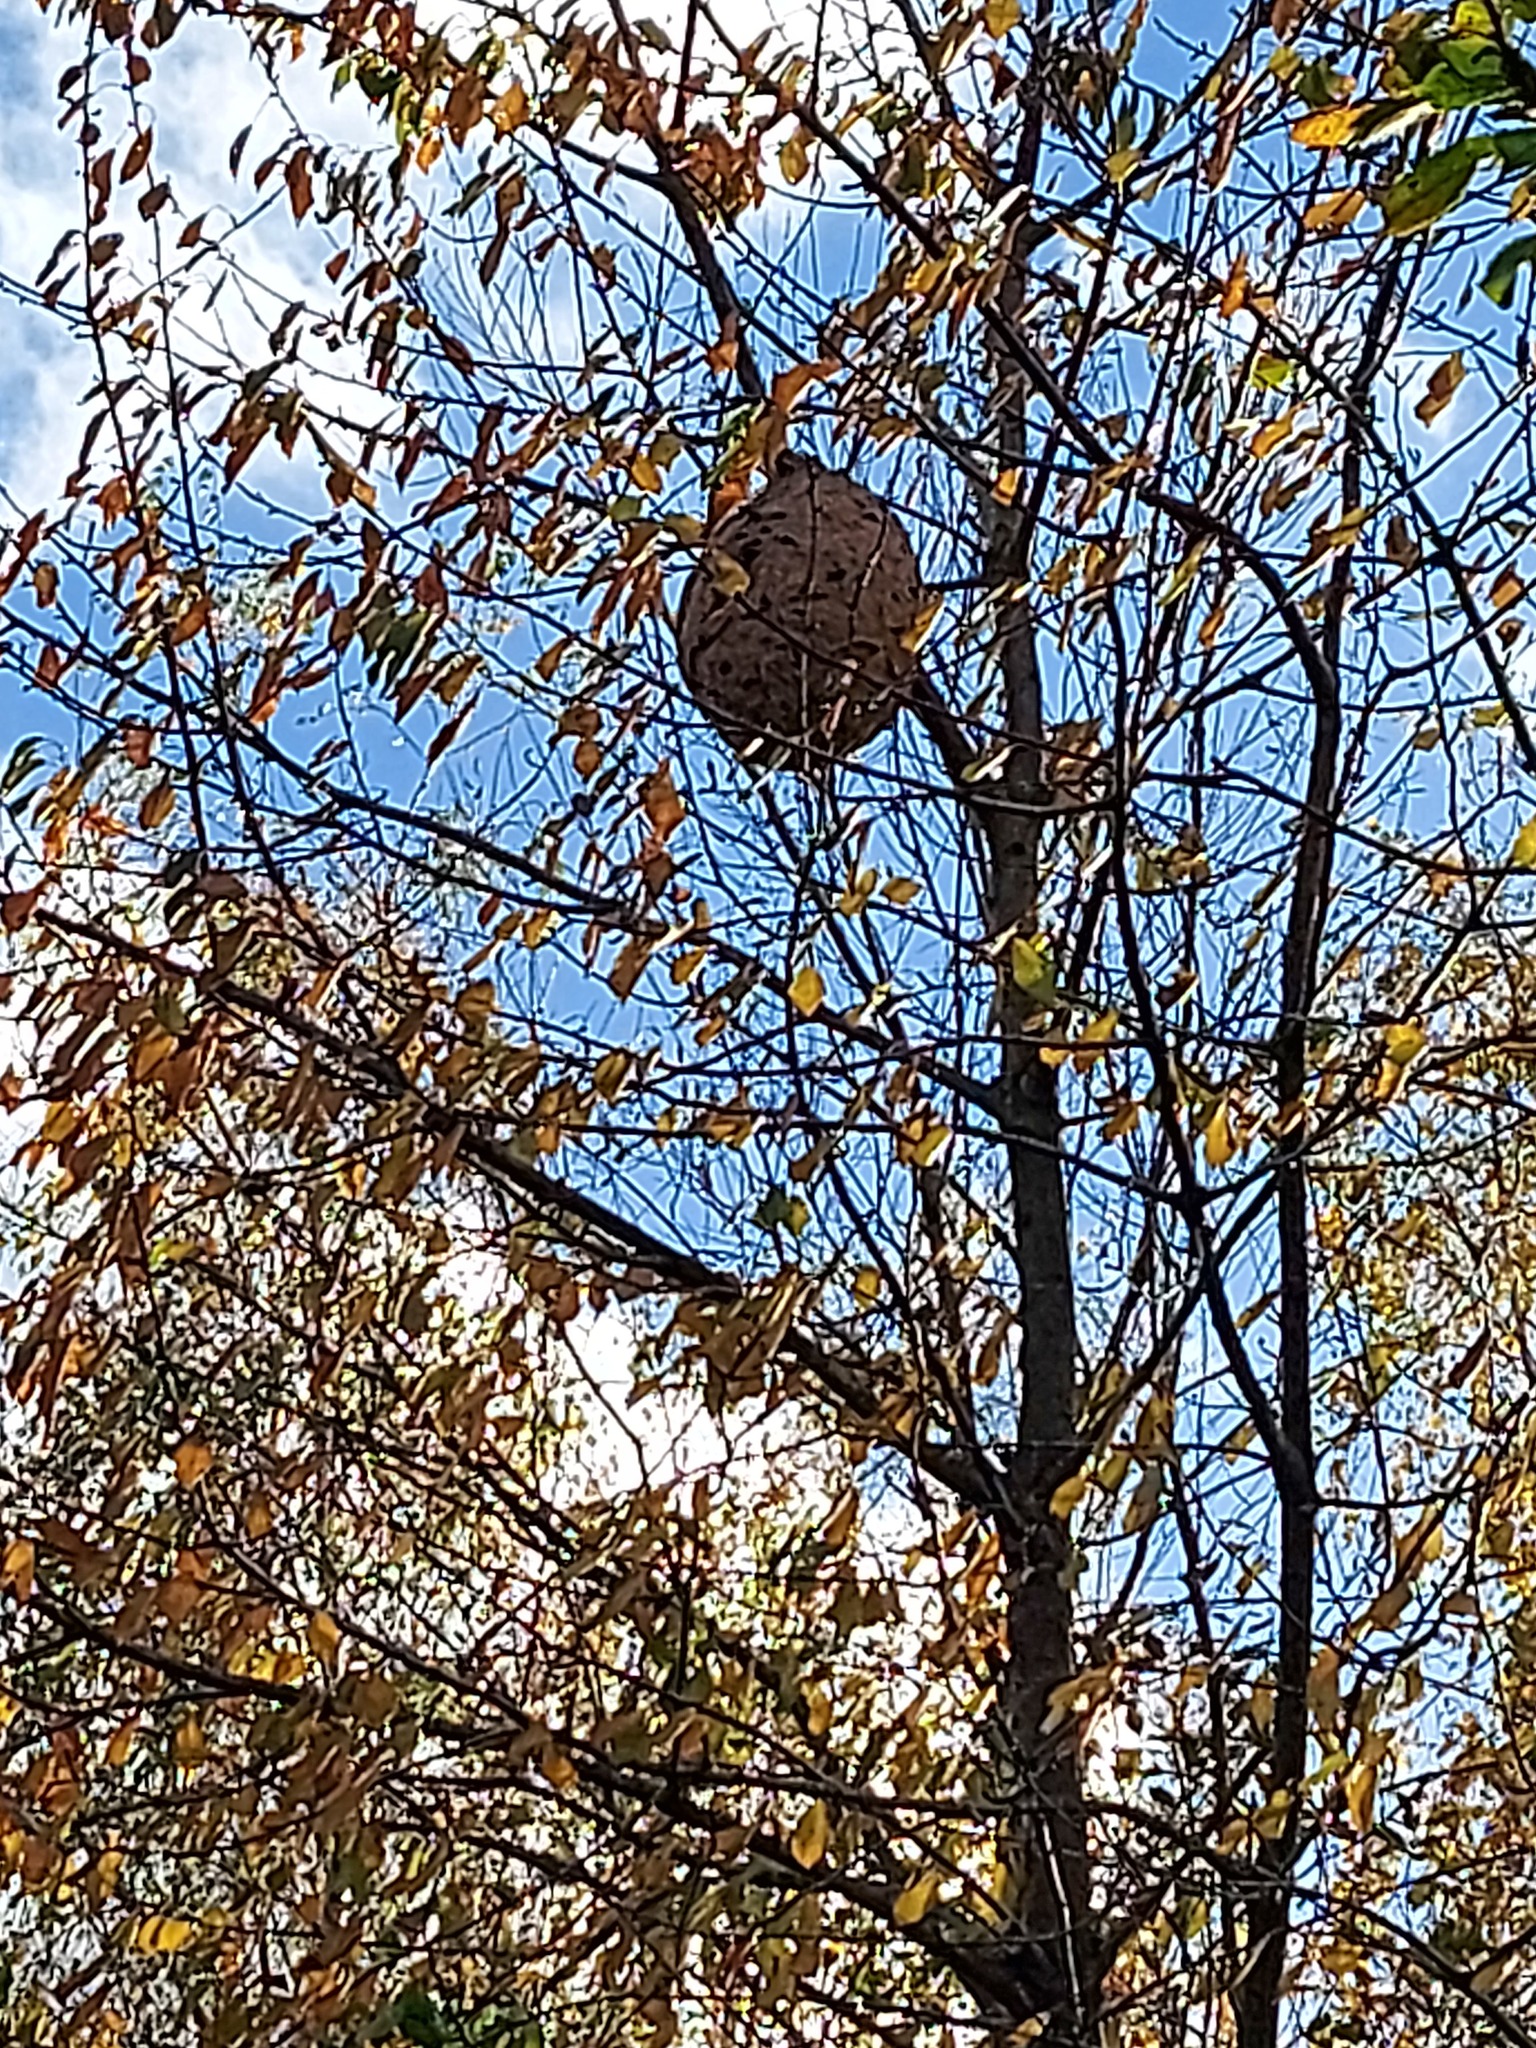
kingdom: Animalia
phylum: Arthropoda
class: Insecta
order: Hymenoptera
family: Vespidae
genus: Vespa
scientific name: Vespa velutina
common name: Asian hornet
